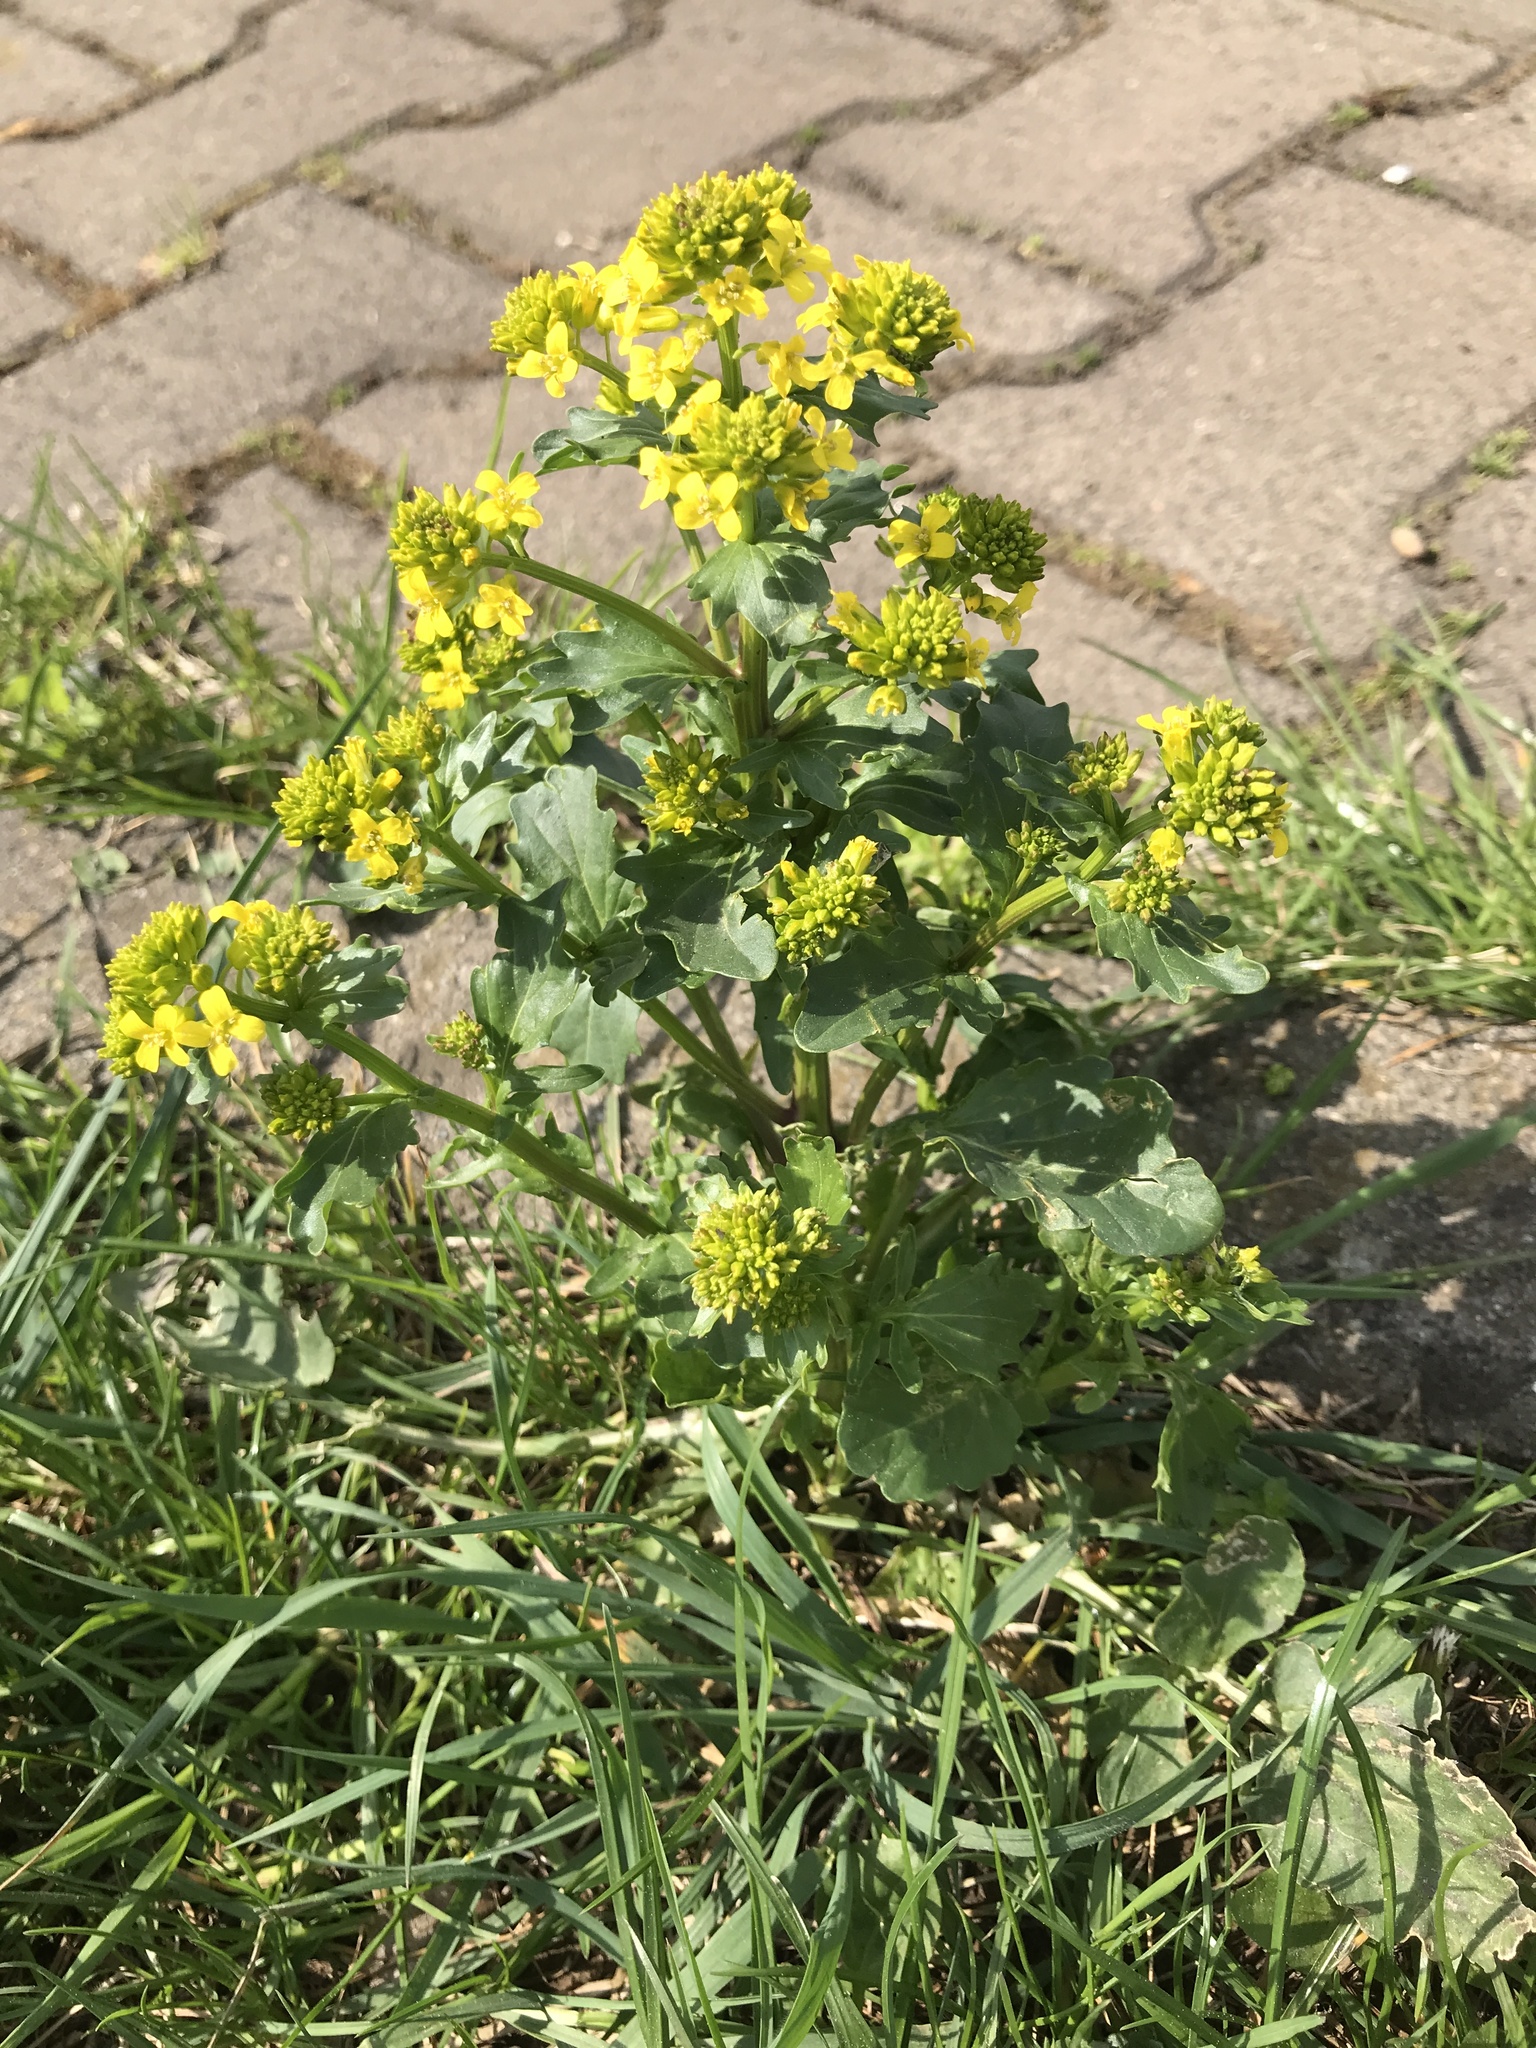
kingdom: Plantae
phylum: Tracheophyta
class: Magnoliopsida
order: Brassicales
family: Brassicaceae
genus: Barbarea
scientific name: Barbarea vulgaris
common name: Cressy-greens
